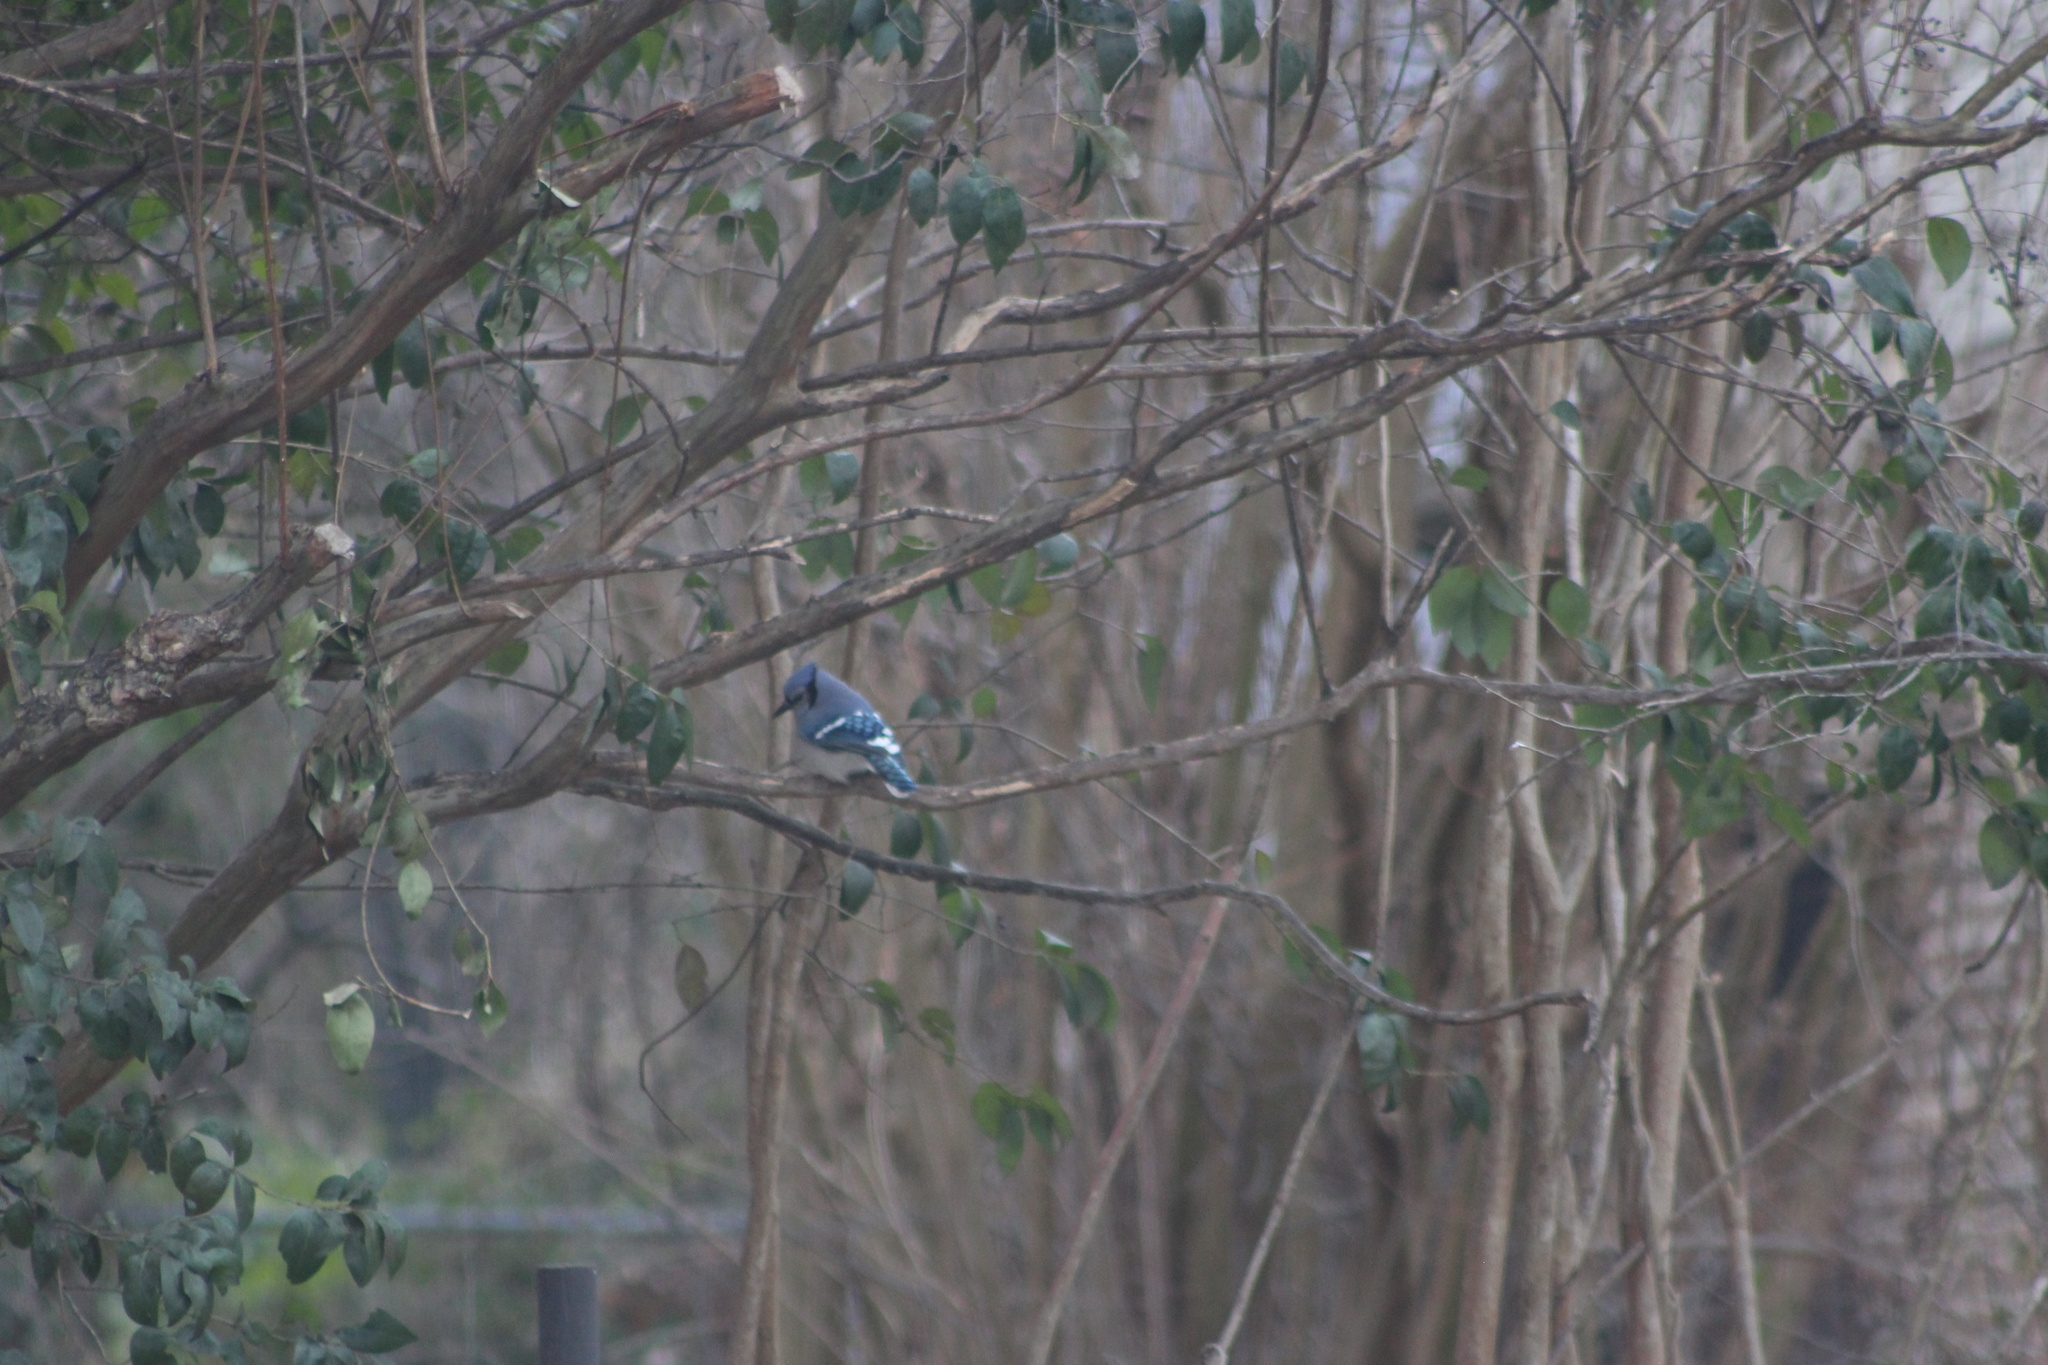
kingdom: Animalia
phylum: Chordata
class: Aves
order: Passeriformes
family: Corvidae
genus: Cyanocitta
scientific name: Cyanocitta cristata
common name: Blue jay
